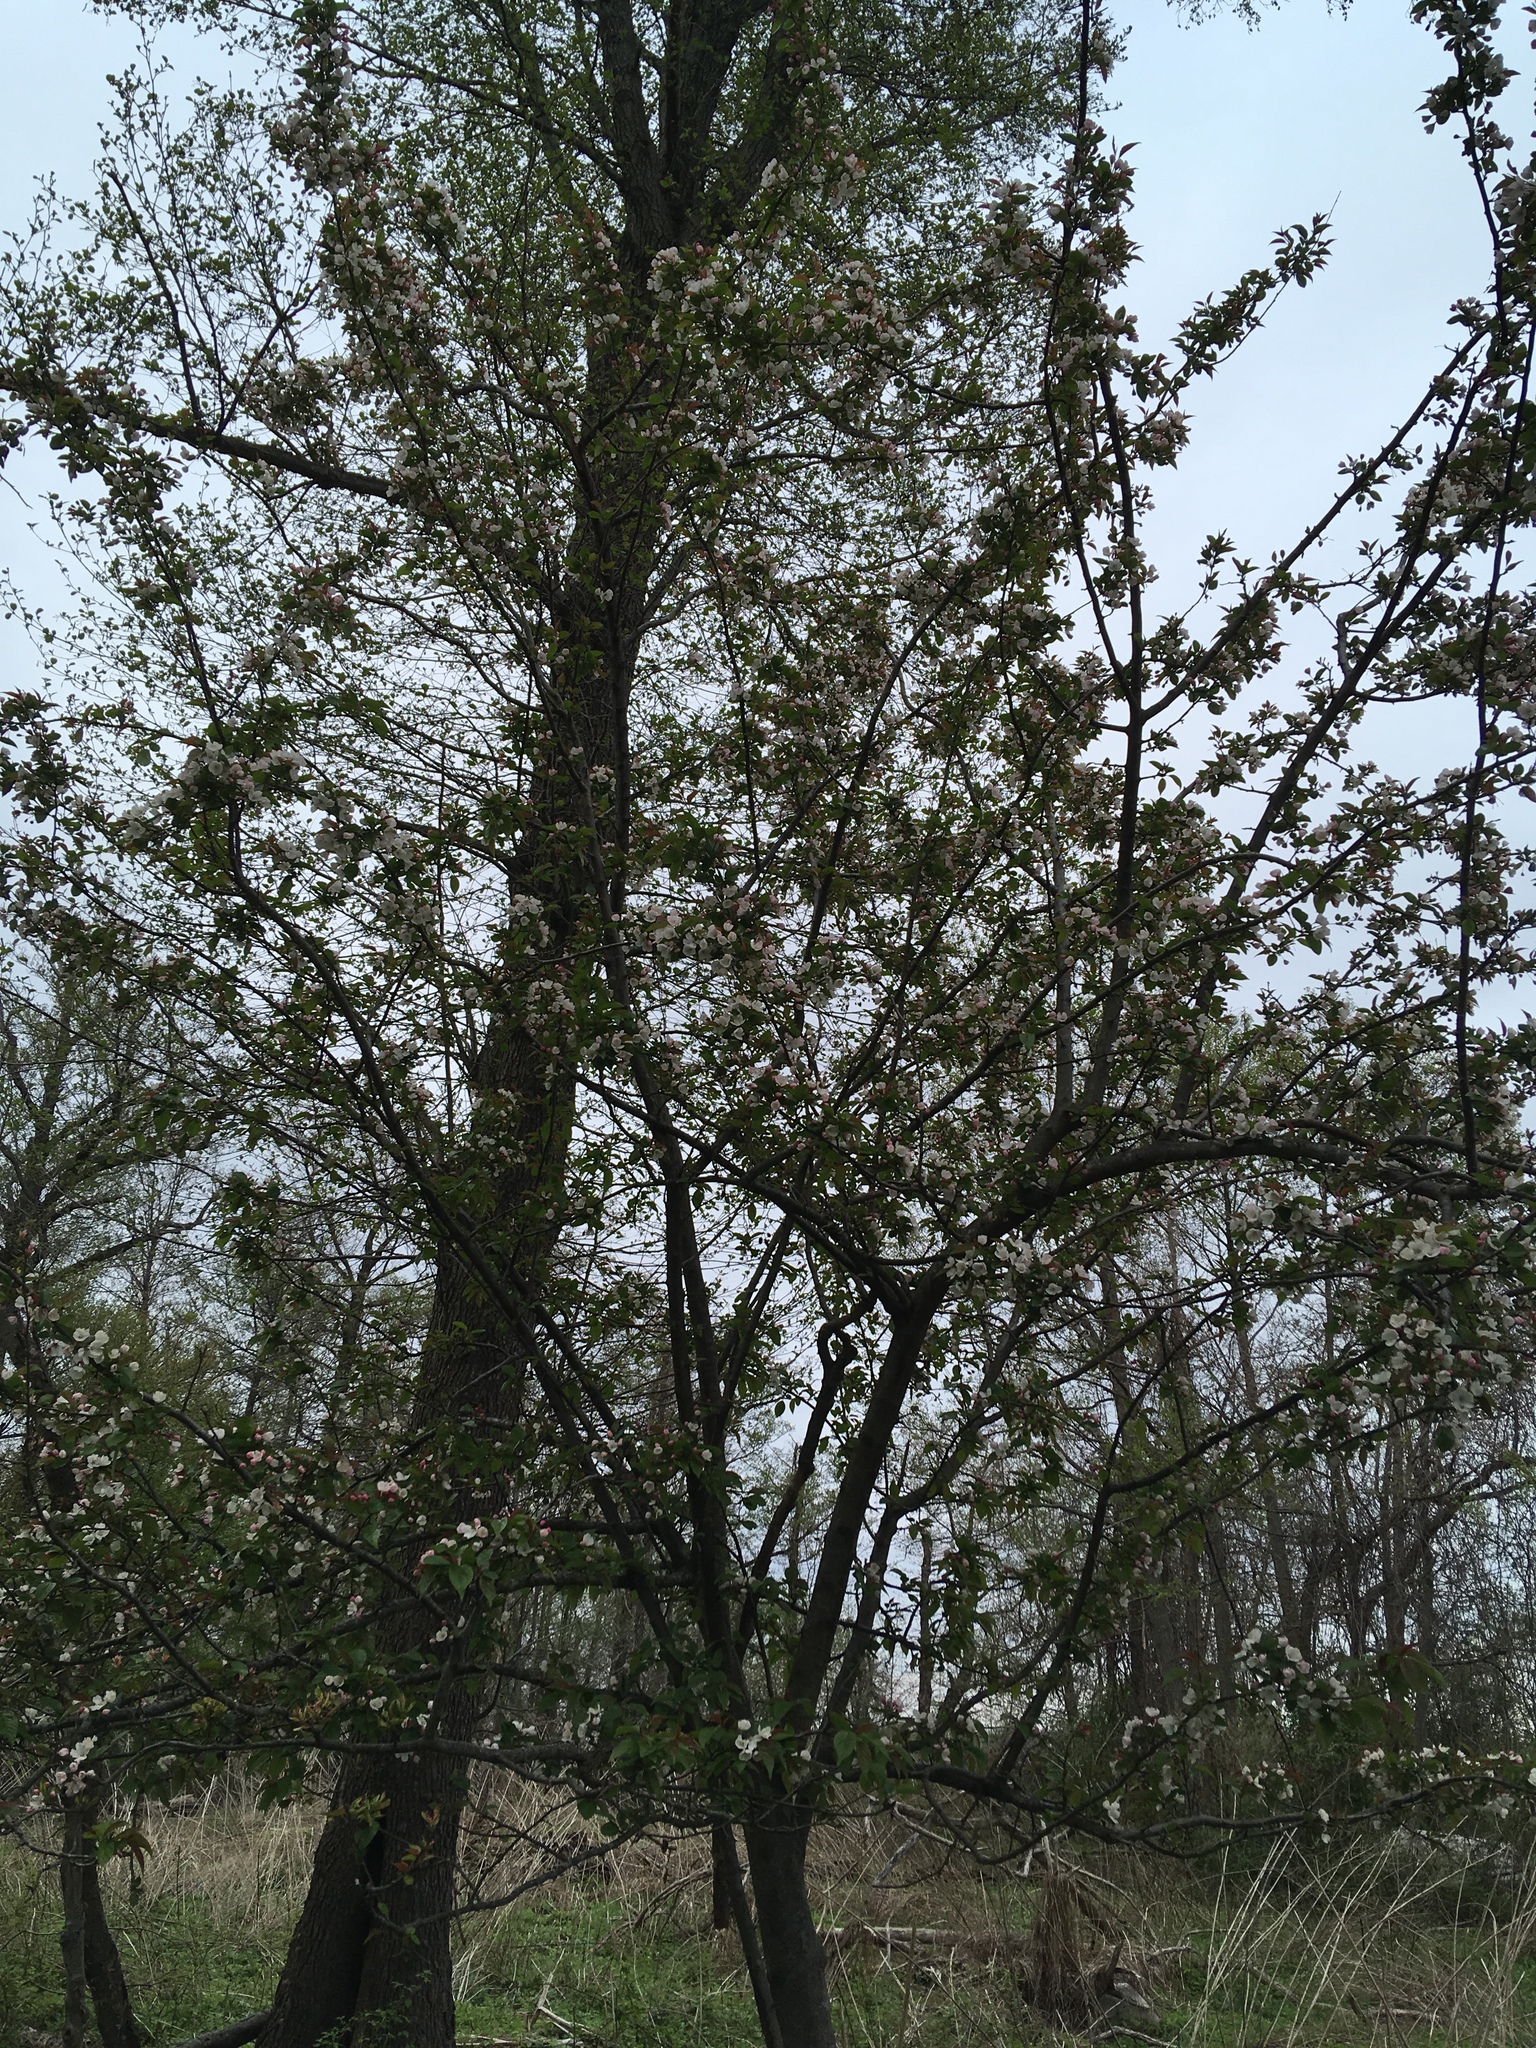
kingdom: Plantae
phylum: Tracheophyta
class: Magnoliopsida
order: Rosales
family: Rosaceae
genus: Malus
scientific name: Malus hupehensis
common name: Chinese crab apple
